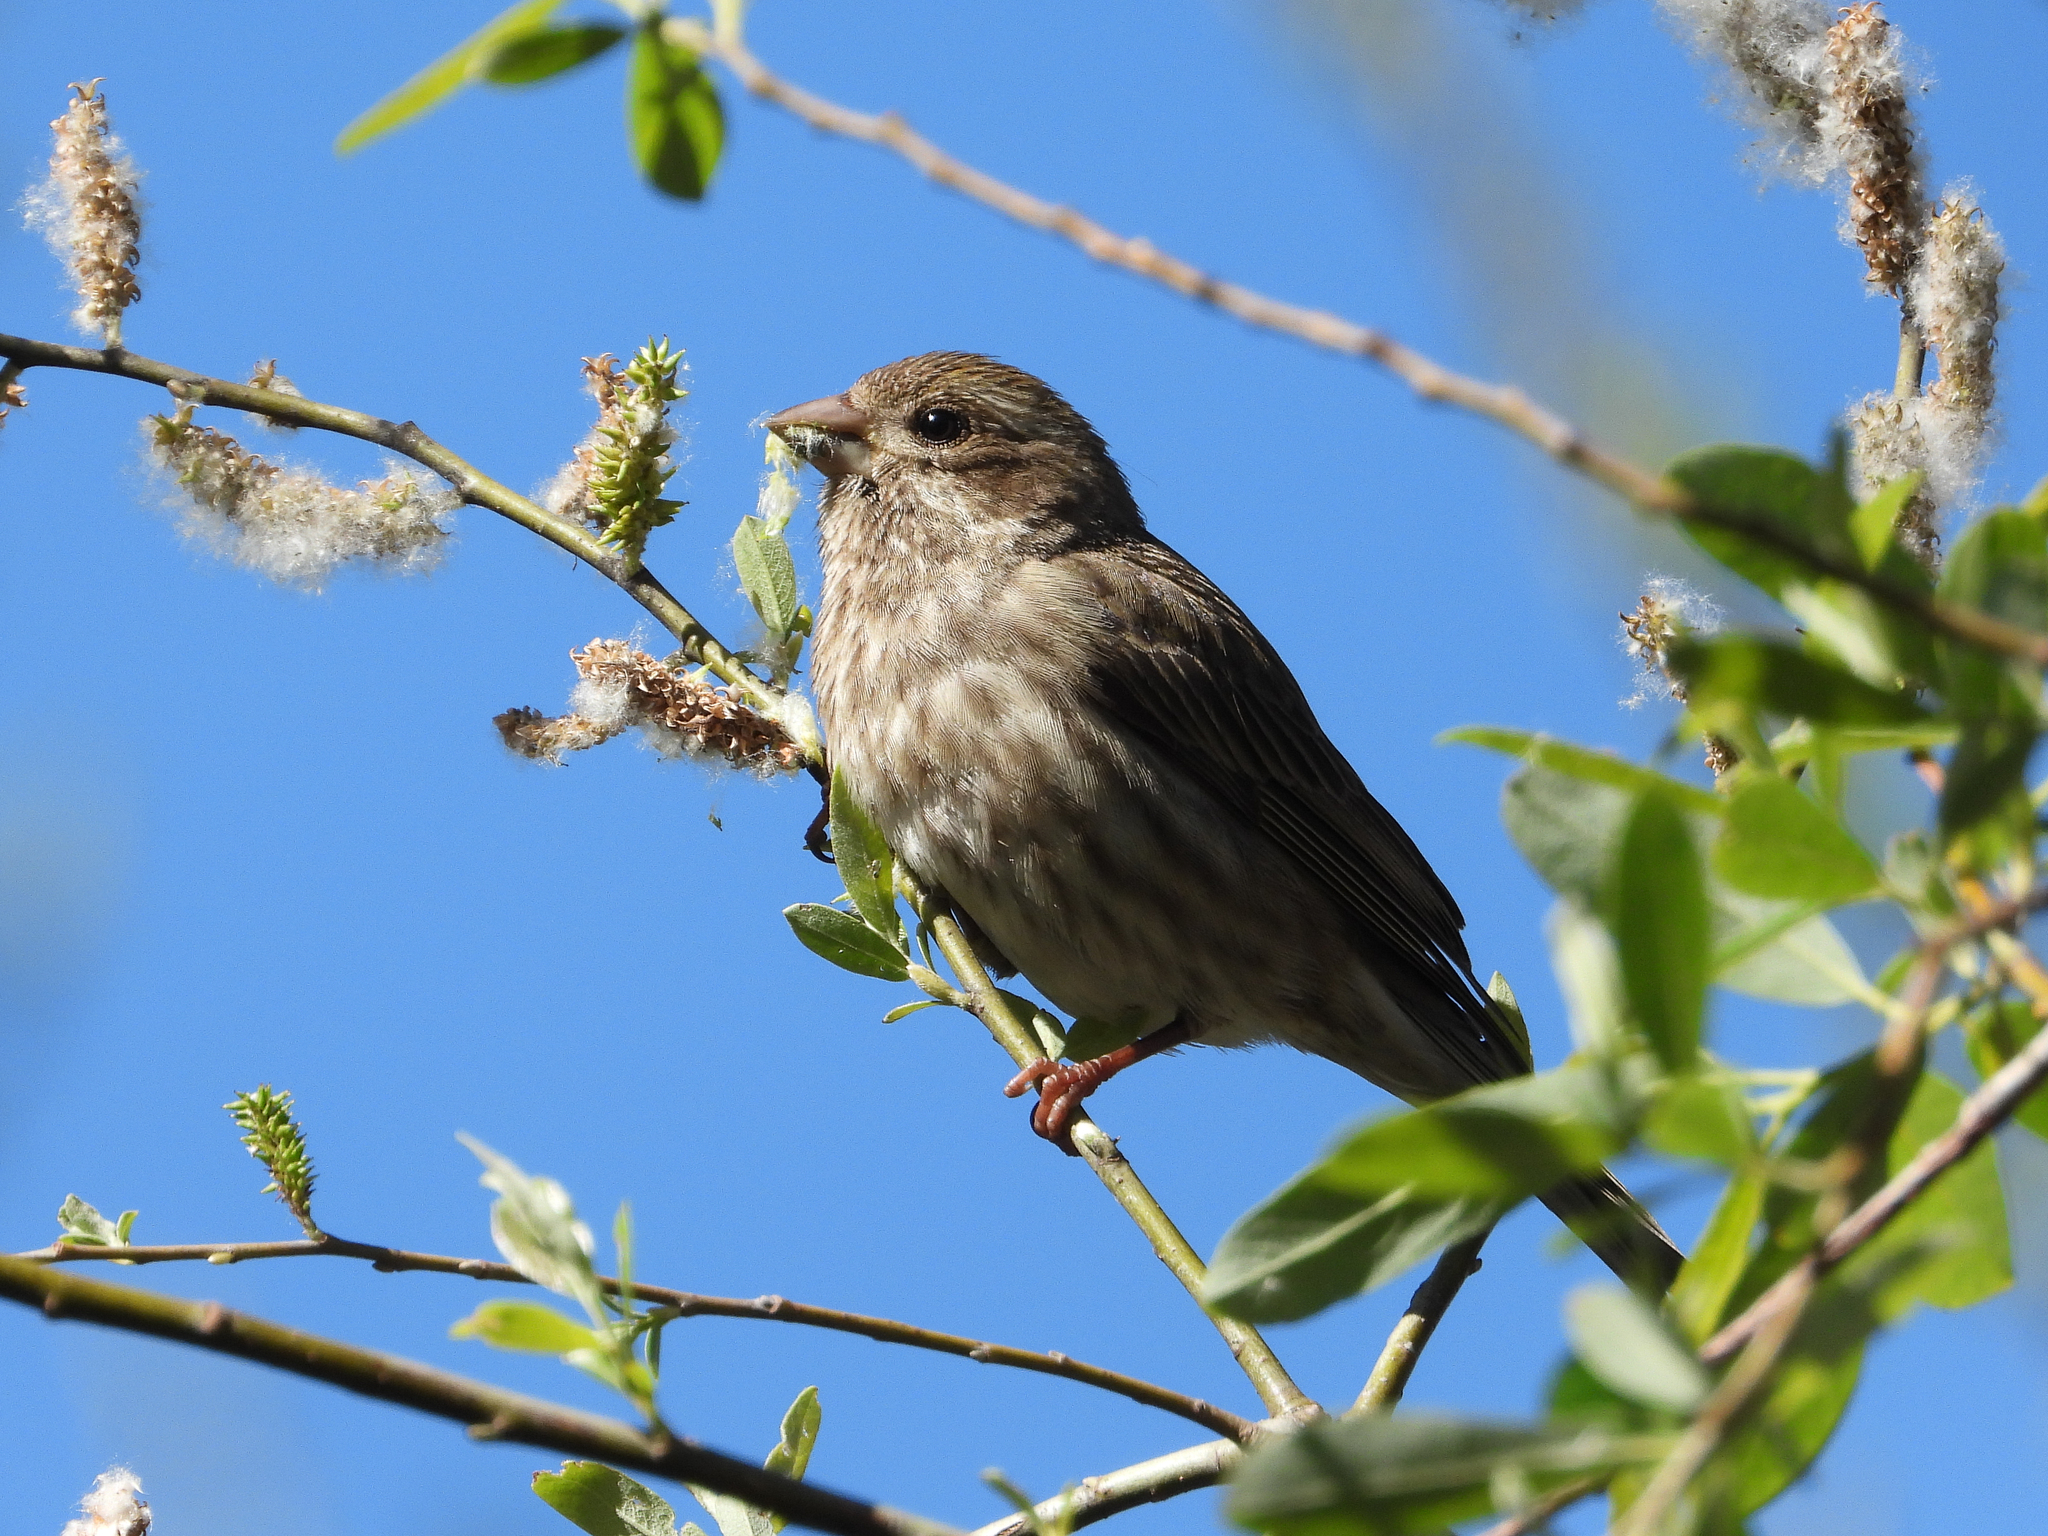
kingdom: Animalia
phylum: Chordata
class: Aves
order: Passeriformes
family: Fringillidae
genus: Haemorhous
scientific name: Haemorhous purpureus
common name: Purple finch
